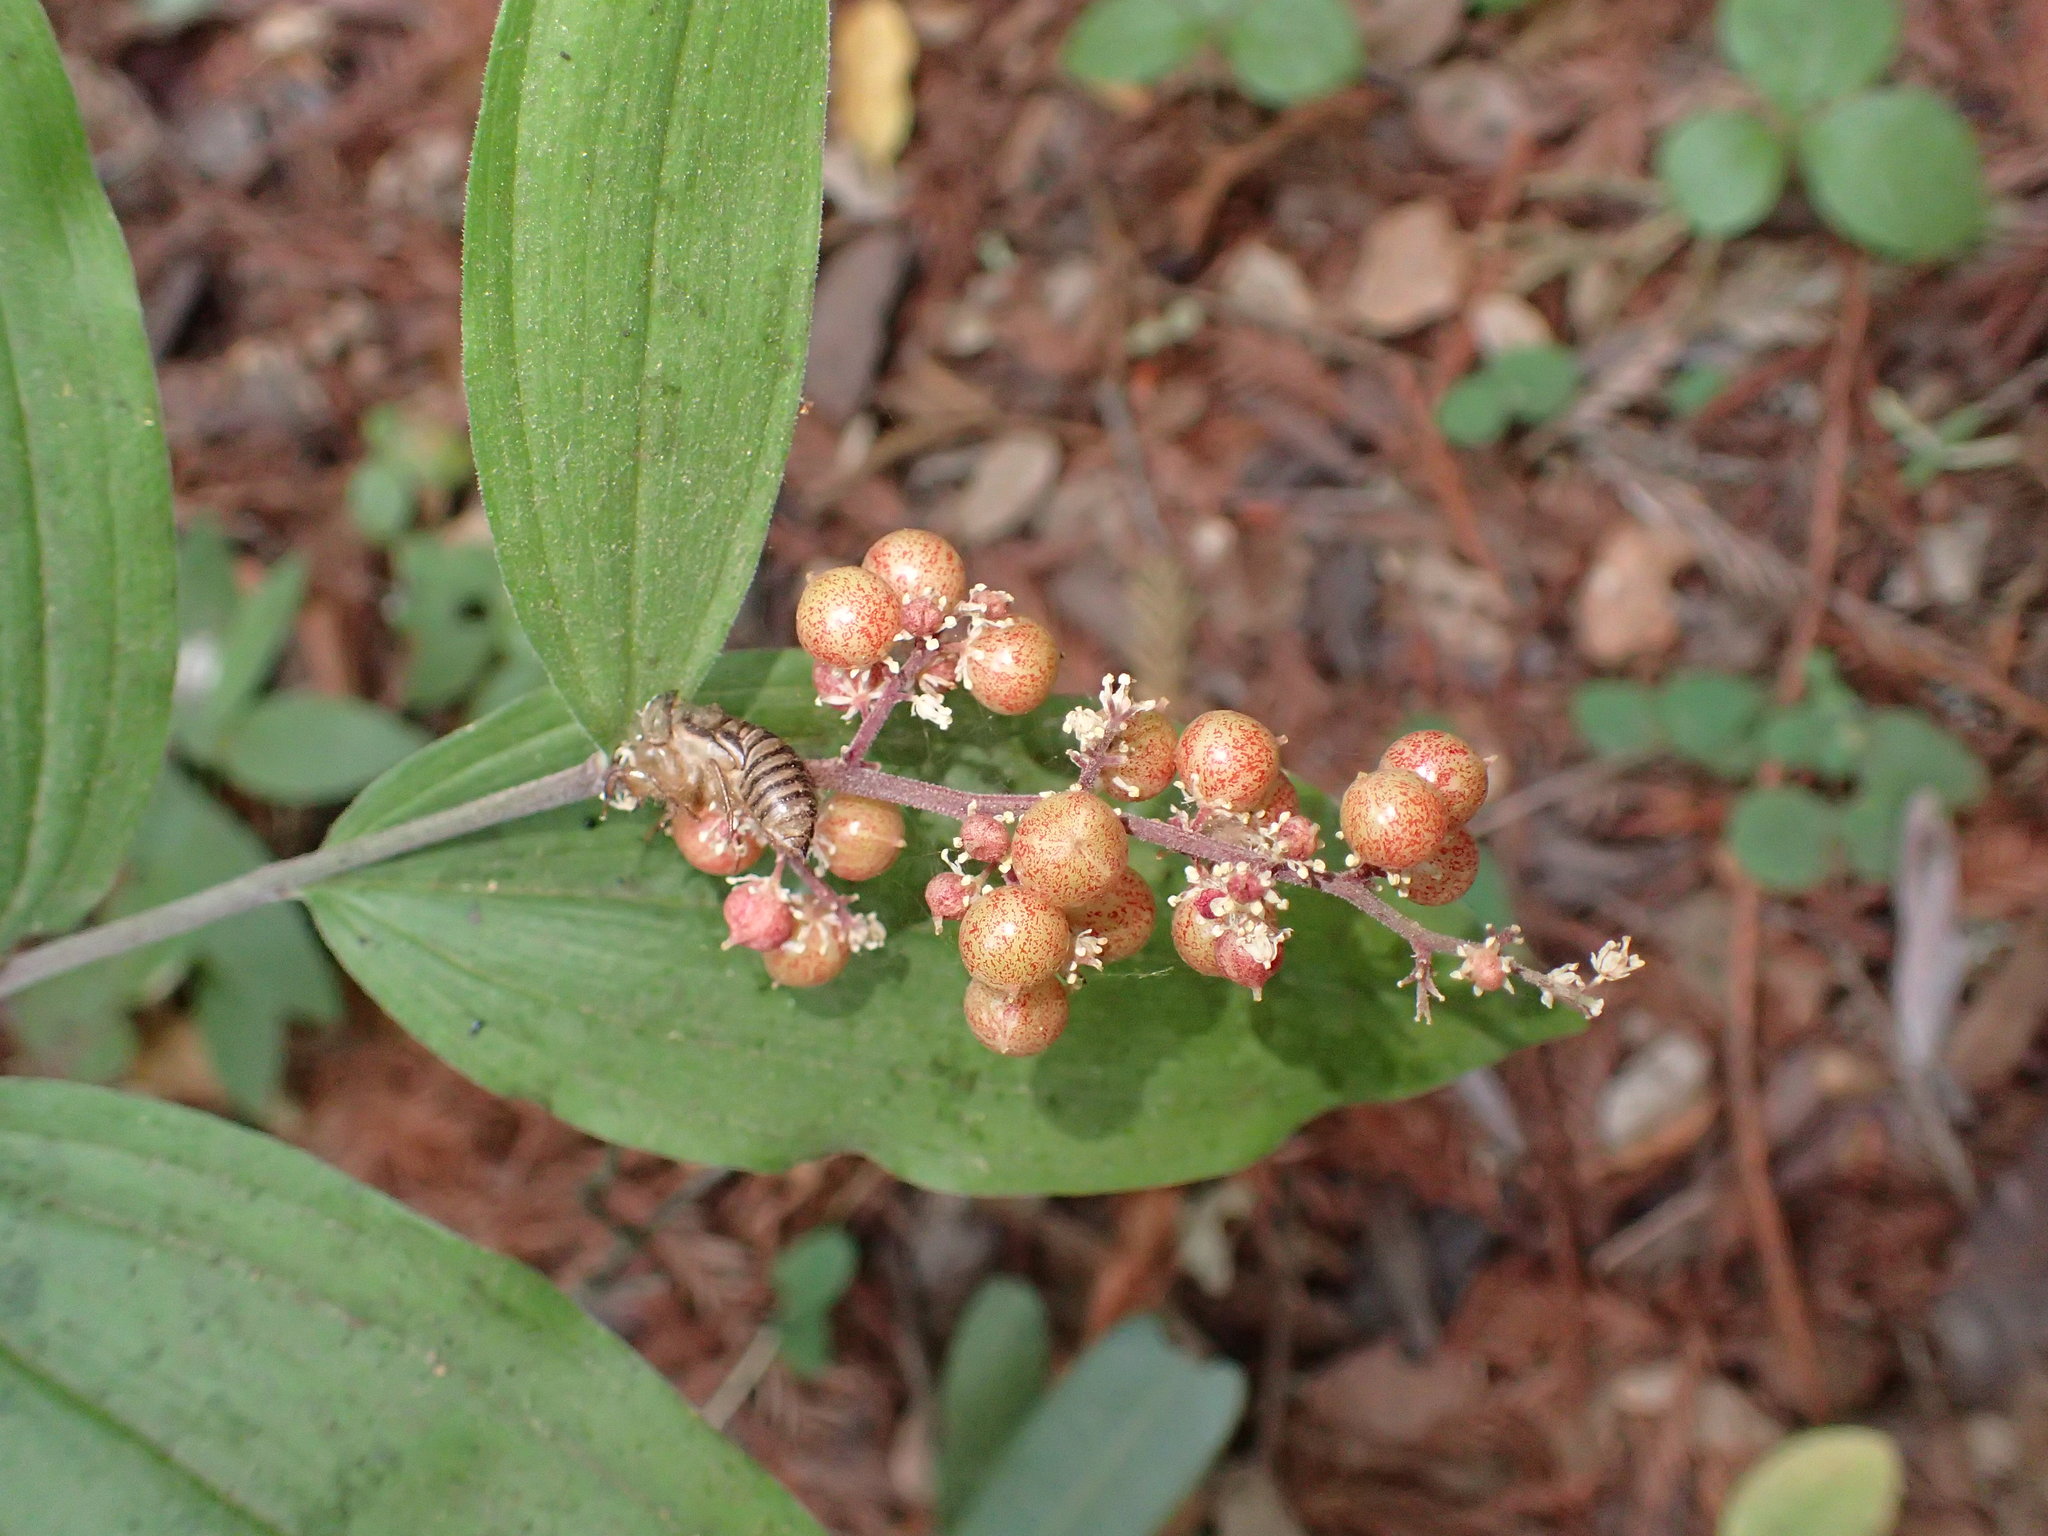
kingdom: Plantae
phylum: Tracheophyta
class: Liliopsida
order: Asparagales
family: Asparagaceae
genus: Maianthemum
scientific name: Maianthemum racemosum
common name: False spikenard
